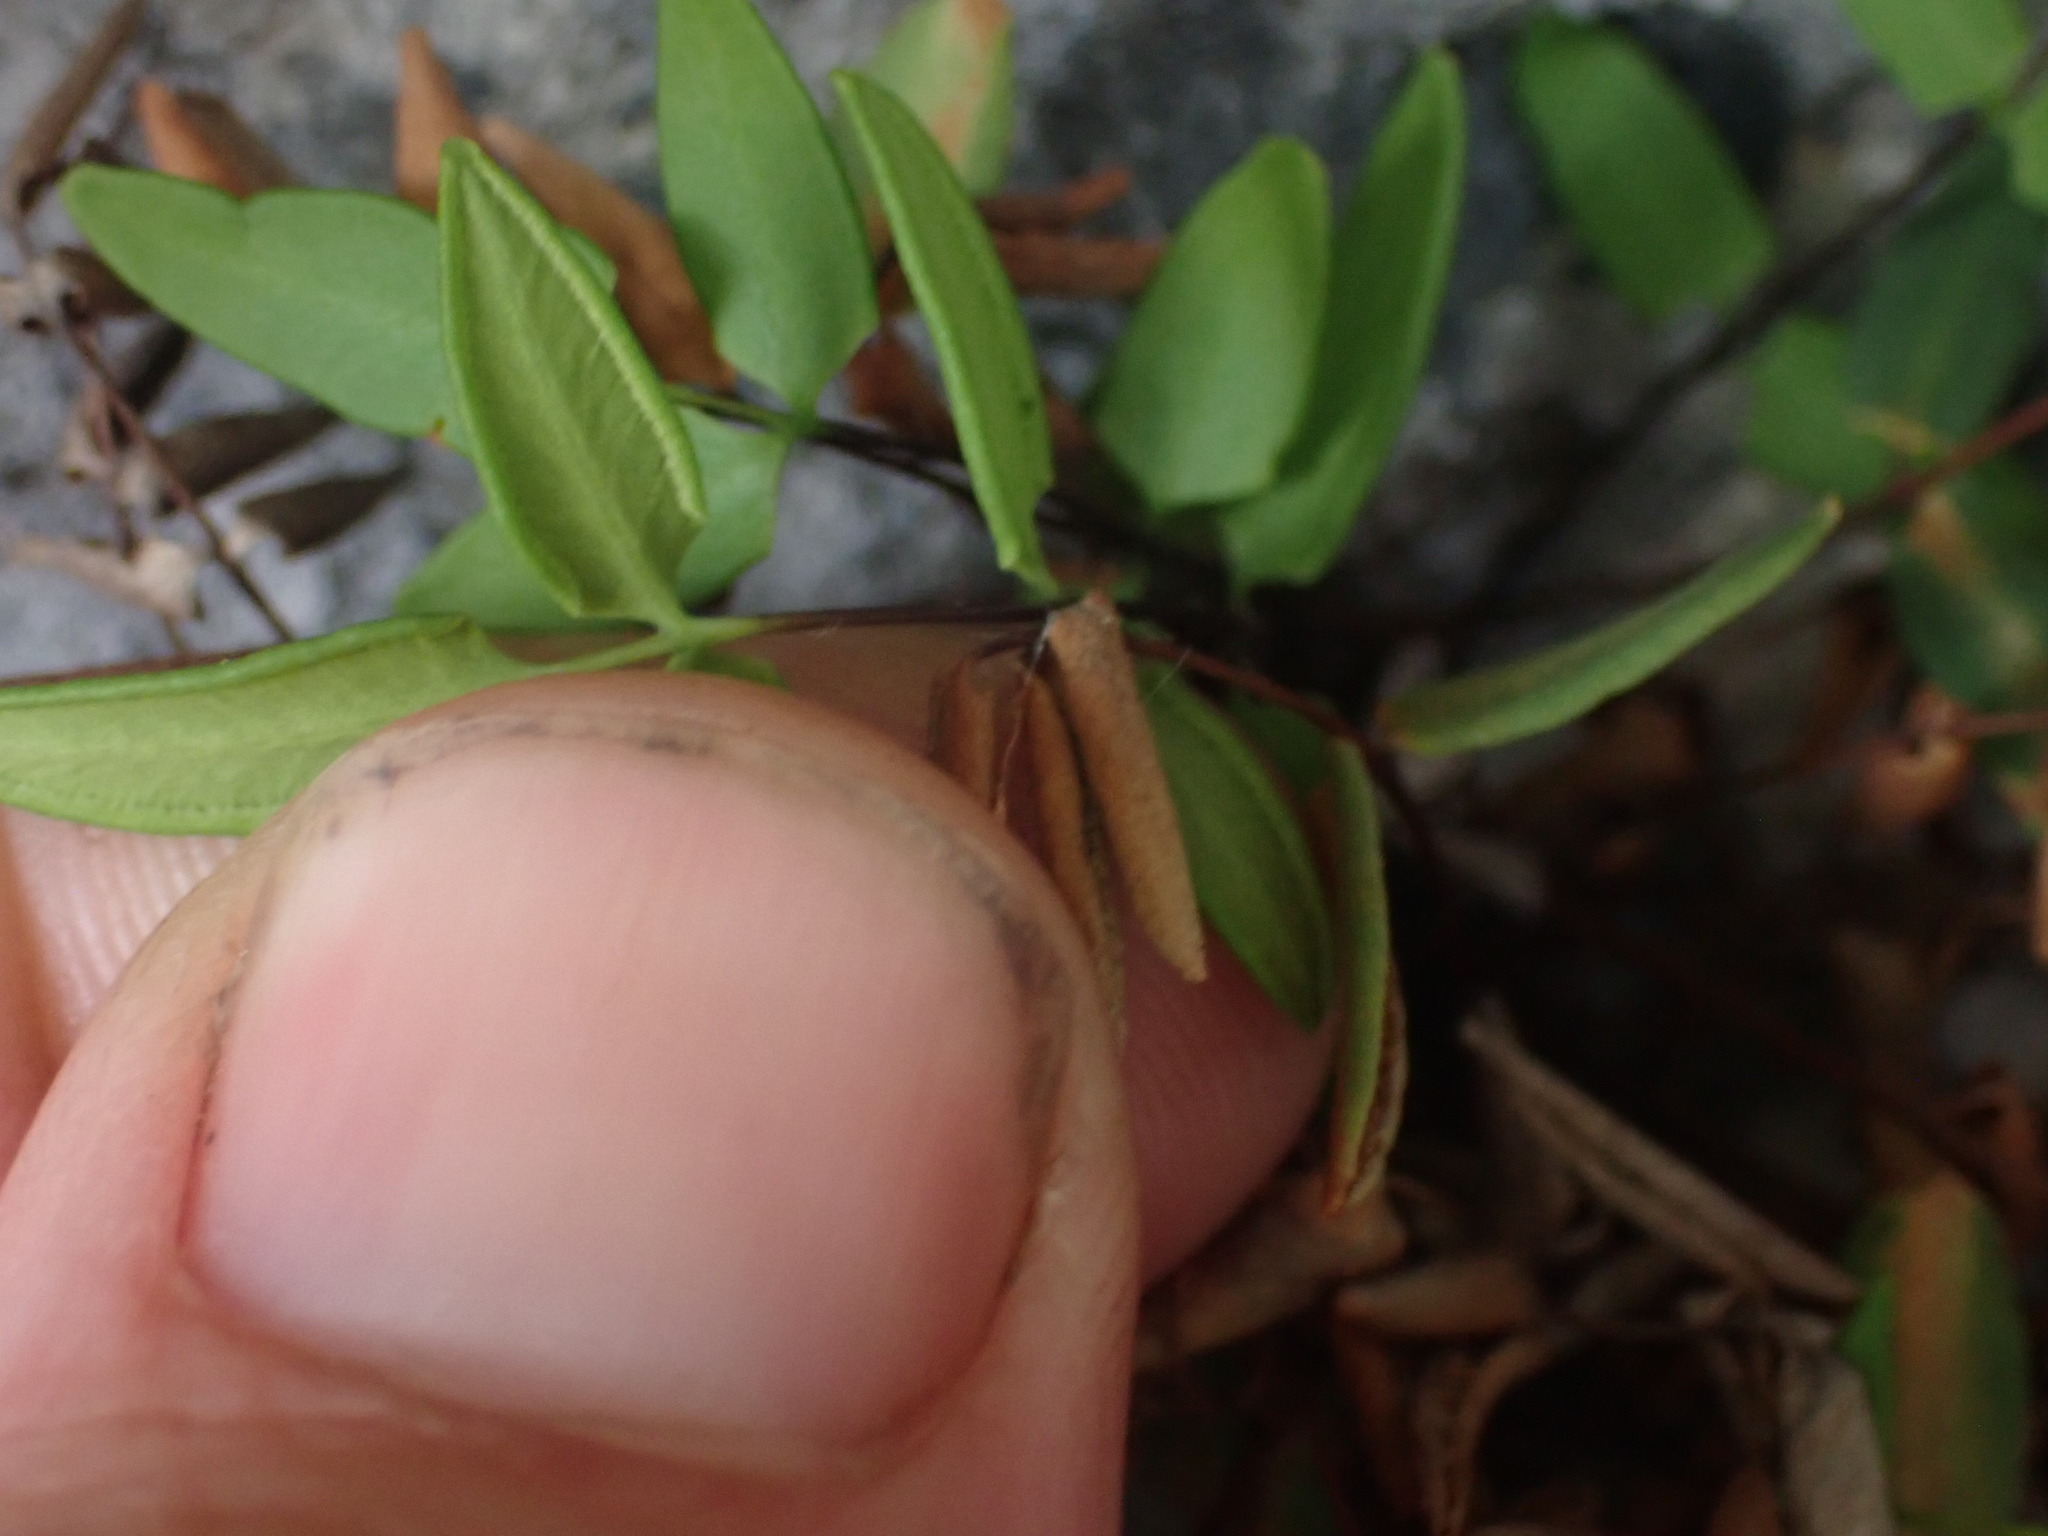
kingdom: Plantae
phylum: Tracheophyta
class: Polypodiopsida
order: Polypodiales
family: Pteridaceae
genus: Pellaea
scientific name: Pellaea glabella
